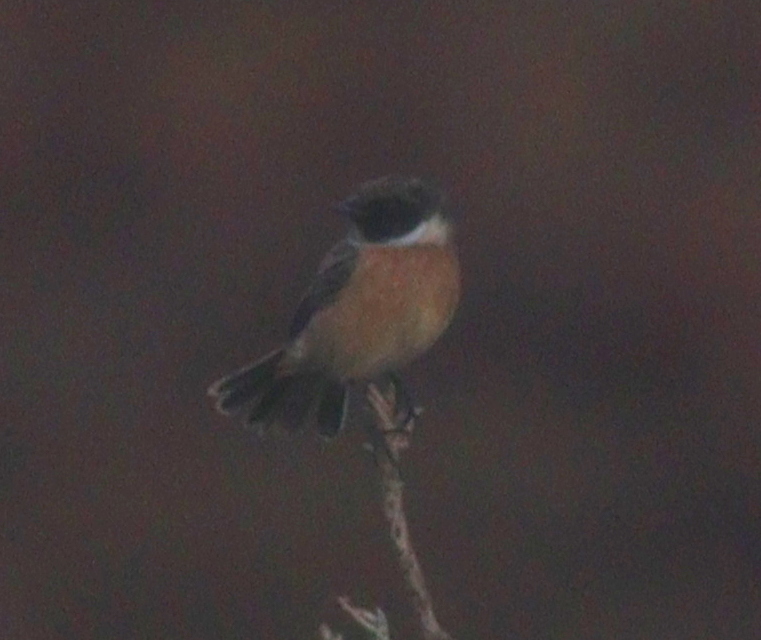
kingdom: Animalia
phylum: Chordata
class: Aves
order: Passeriformes
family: Muscicapidae
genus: Saxicola
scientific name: Saxicola rubicola
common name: European stonechat
